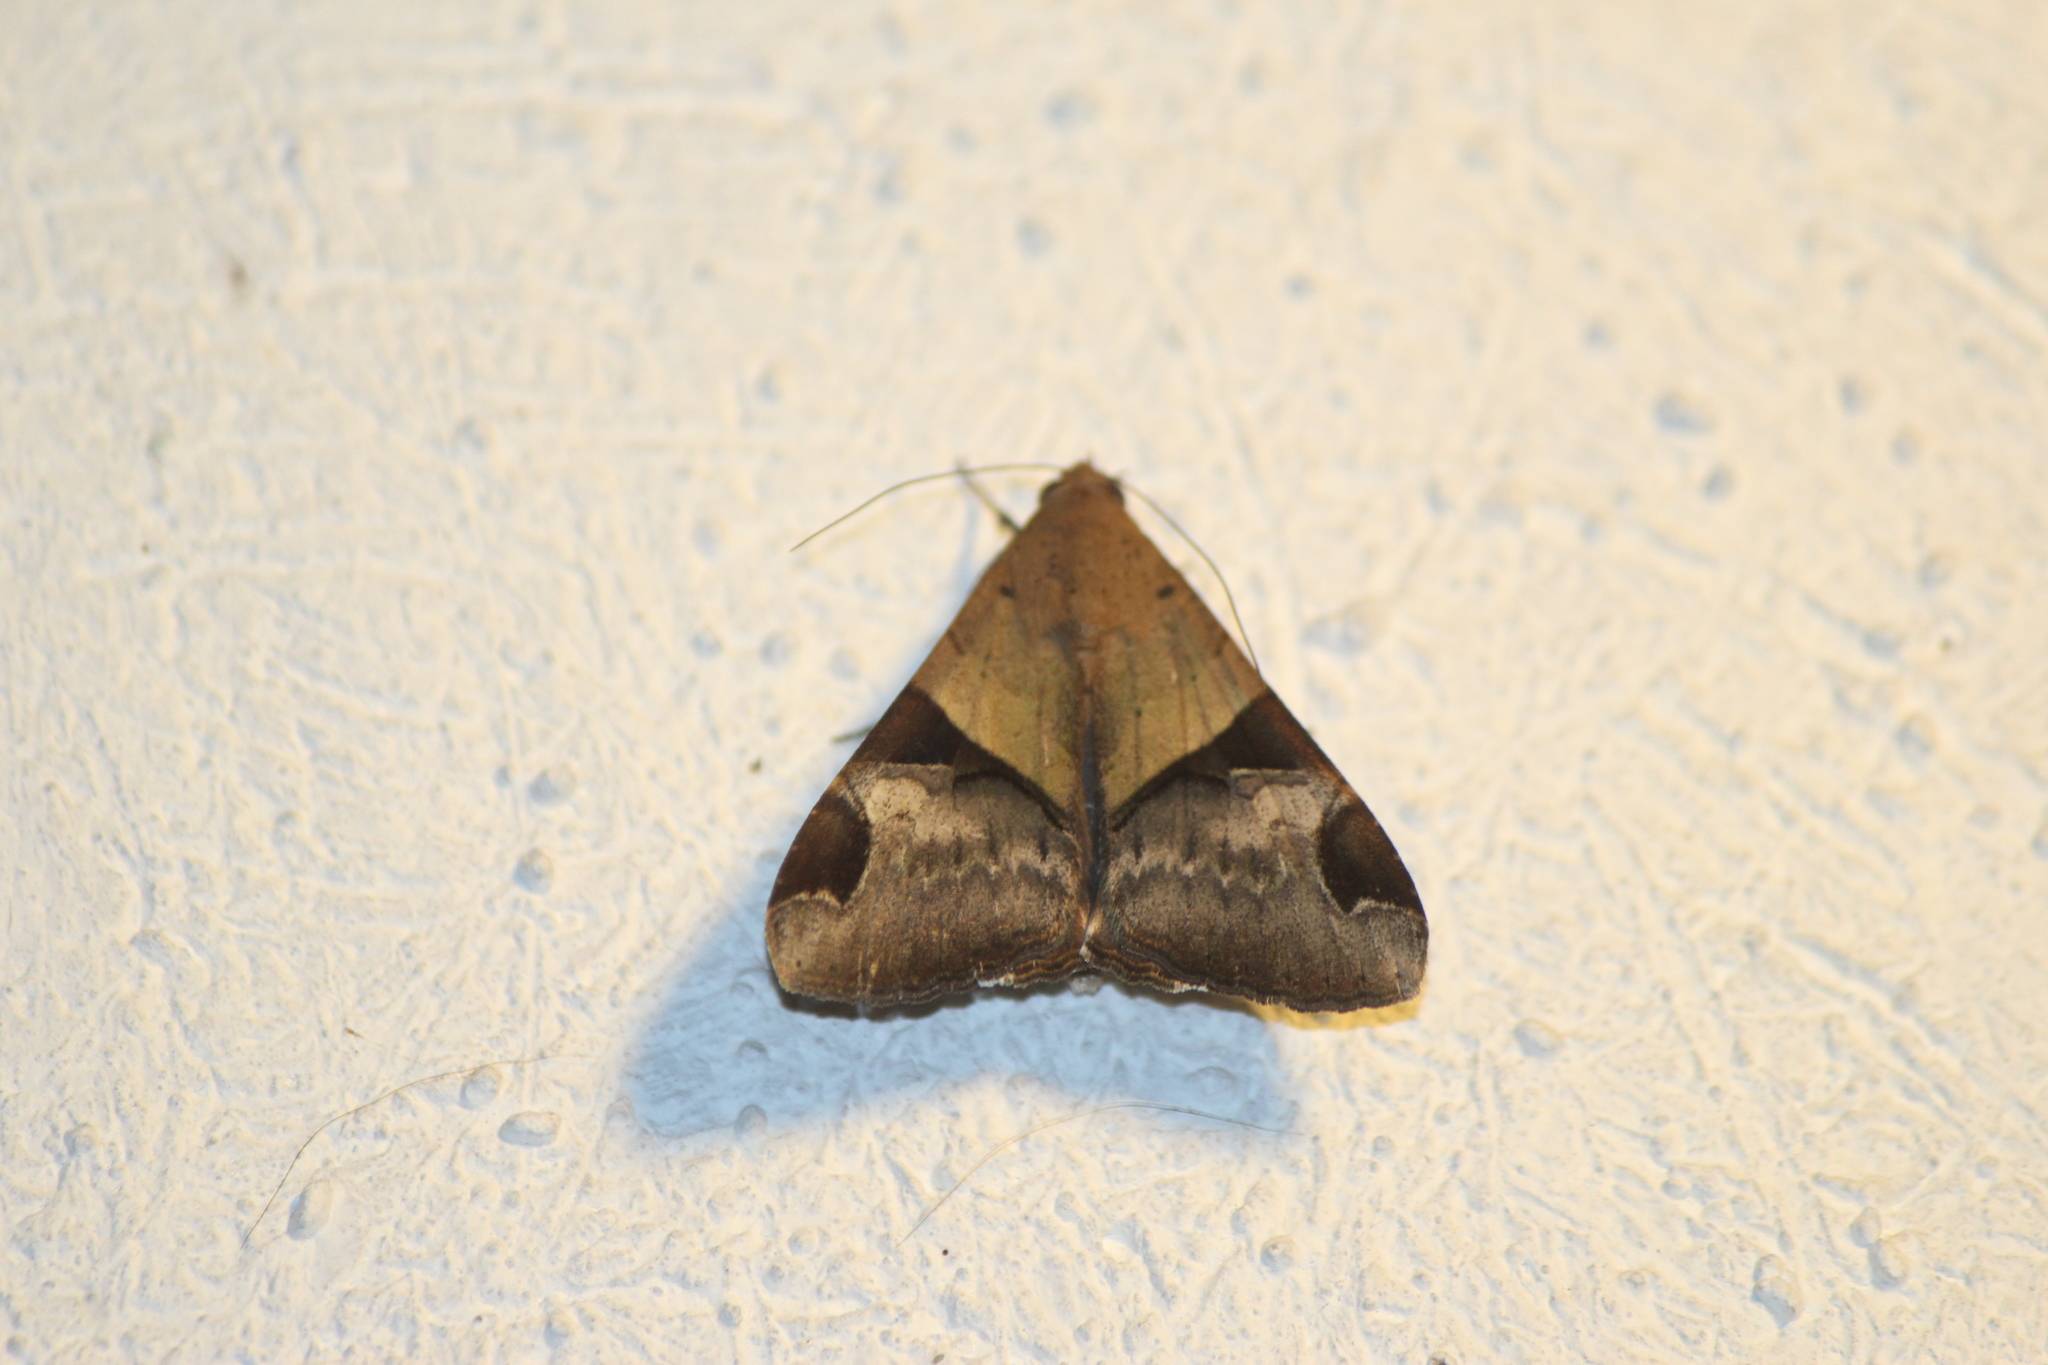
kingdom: Animalia
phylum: Arthropoda
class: Insecta
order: Lepidoptera
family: Erebidae
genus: Melipotis
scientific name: Melipotis fasciolaris
